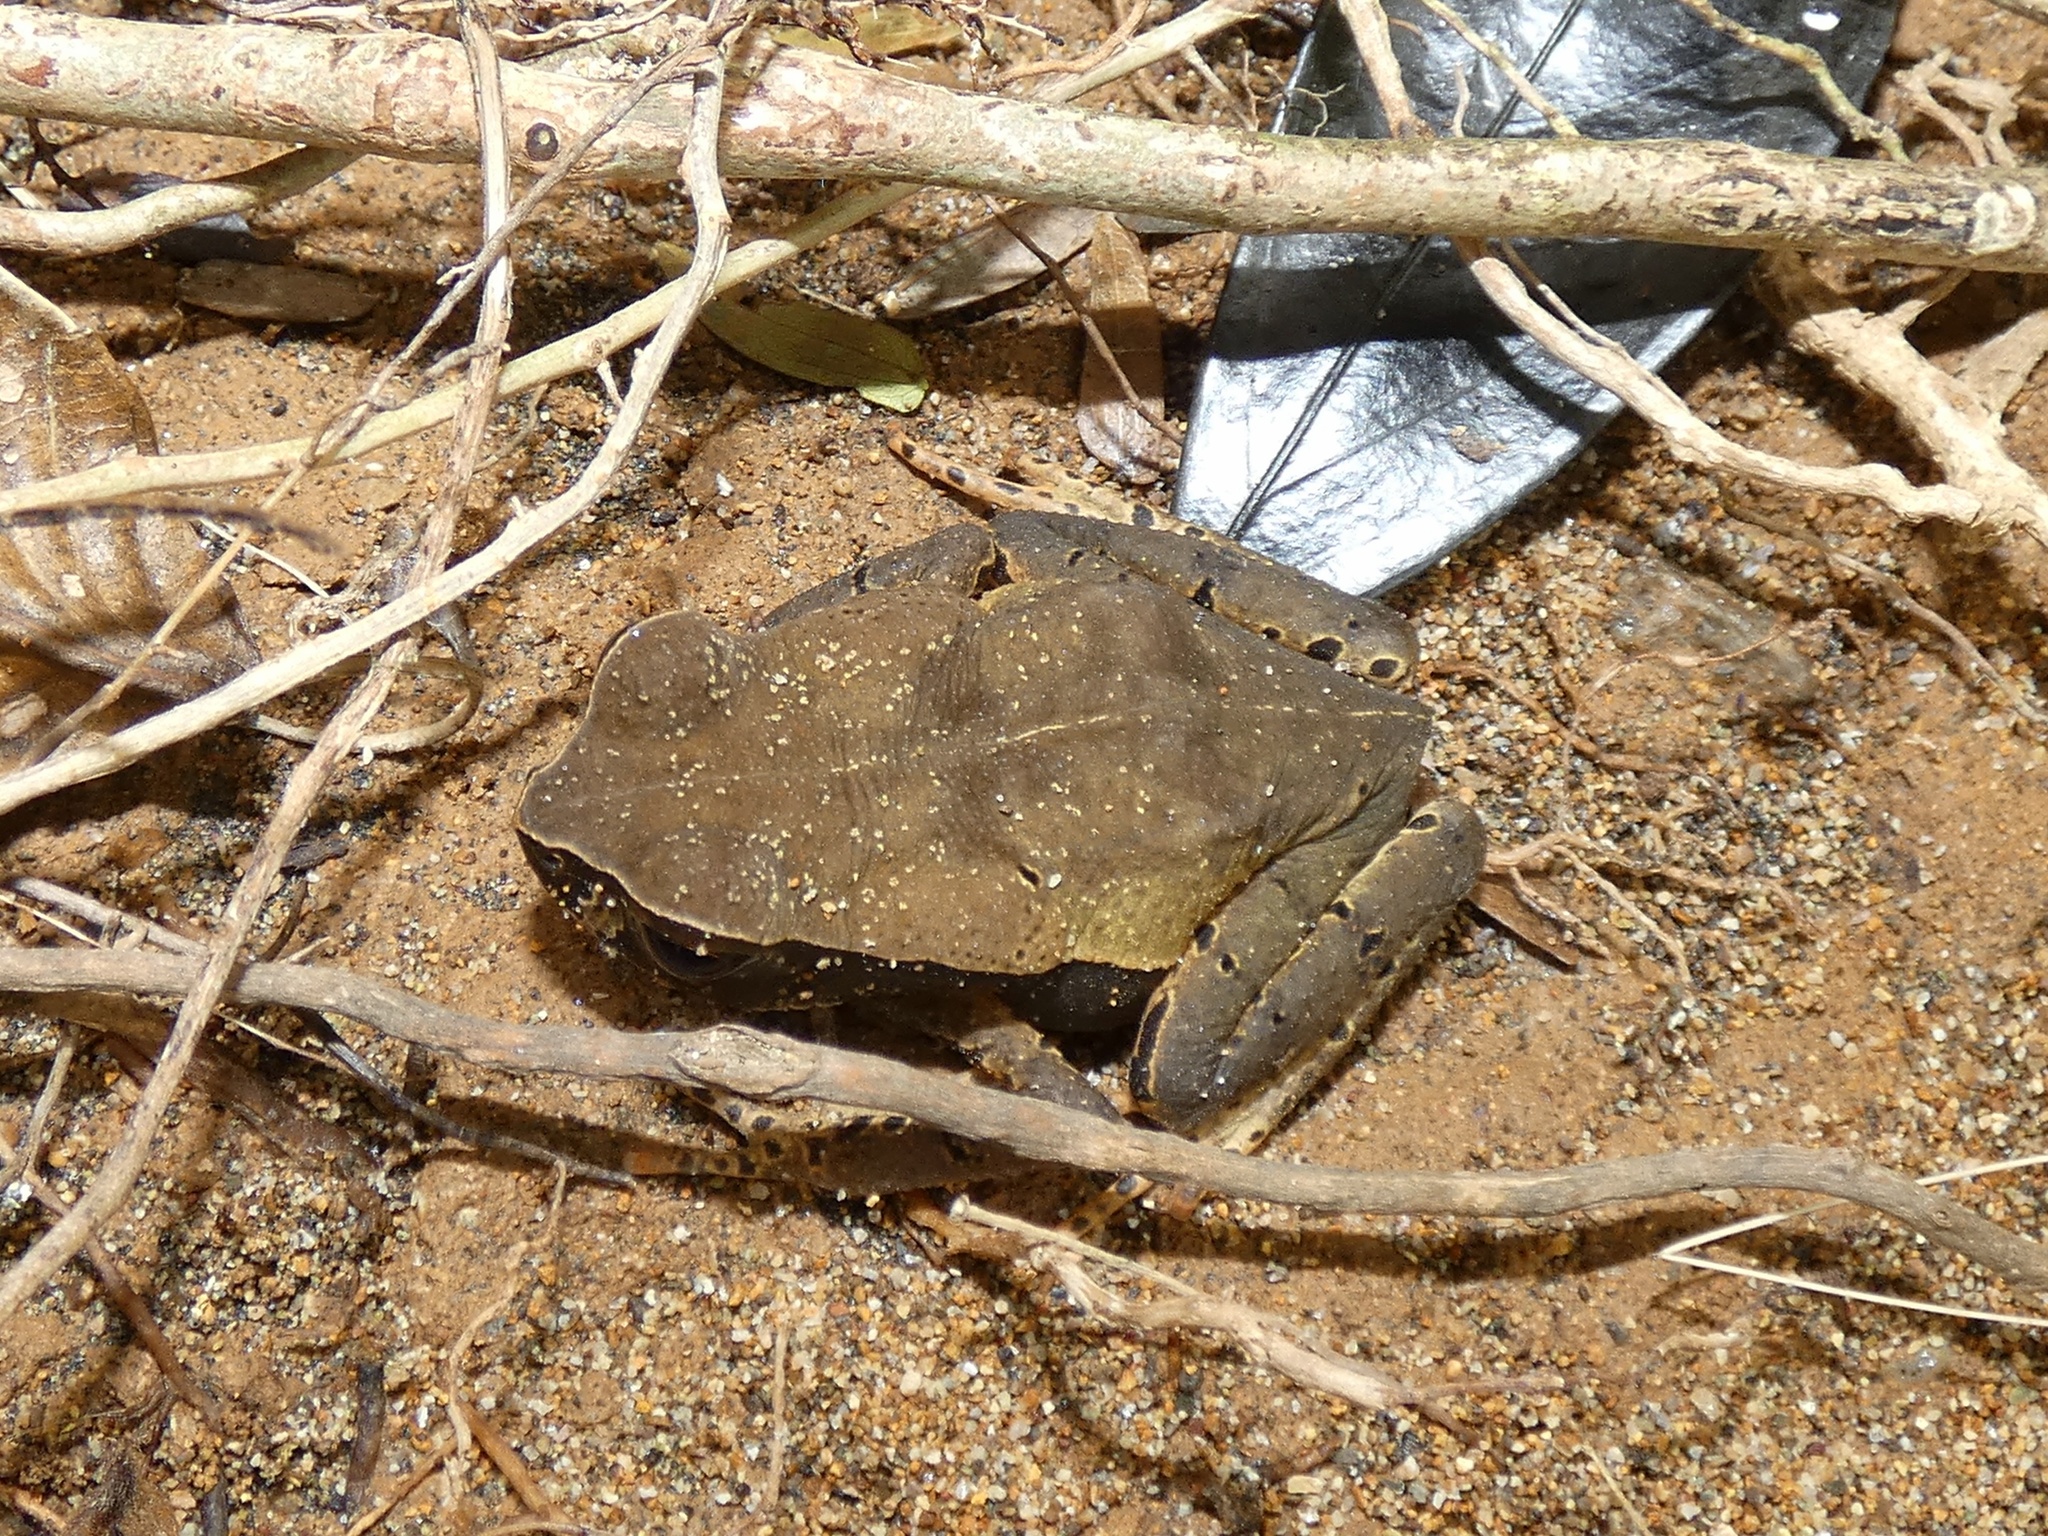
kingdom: Animalia
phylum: Chordata
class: Amphibia
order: Anura
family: Bufonidae
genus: Rhaebo
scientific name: Rhaebo haematiticus
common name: Truando toad
